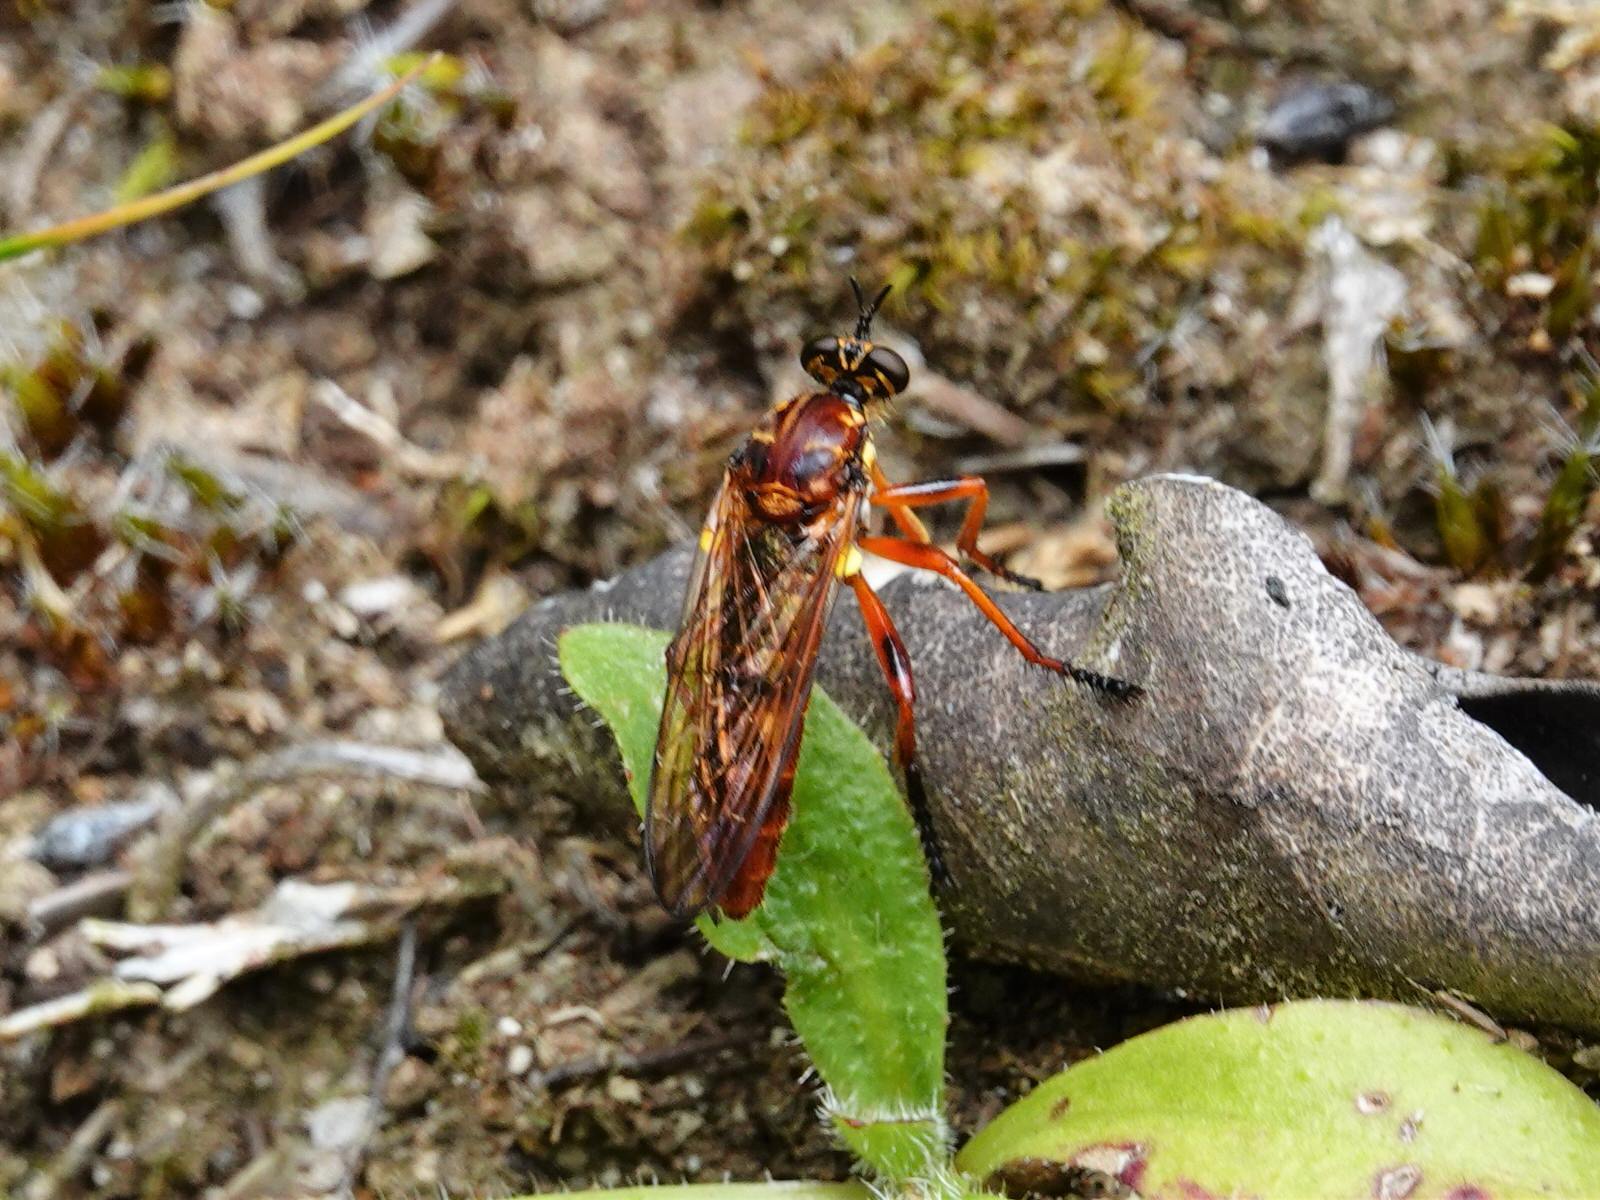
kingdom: Animalia
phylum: Arthropoda
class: Insecta
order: Diptera
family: Asilidae
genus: Saropogon
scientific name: Saropogon antipodus
